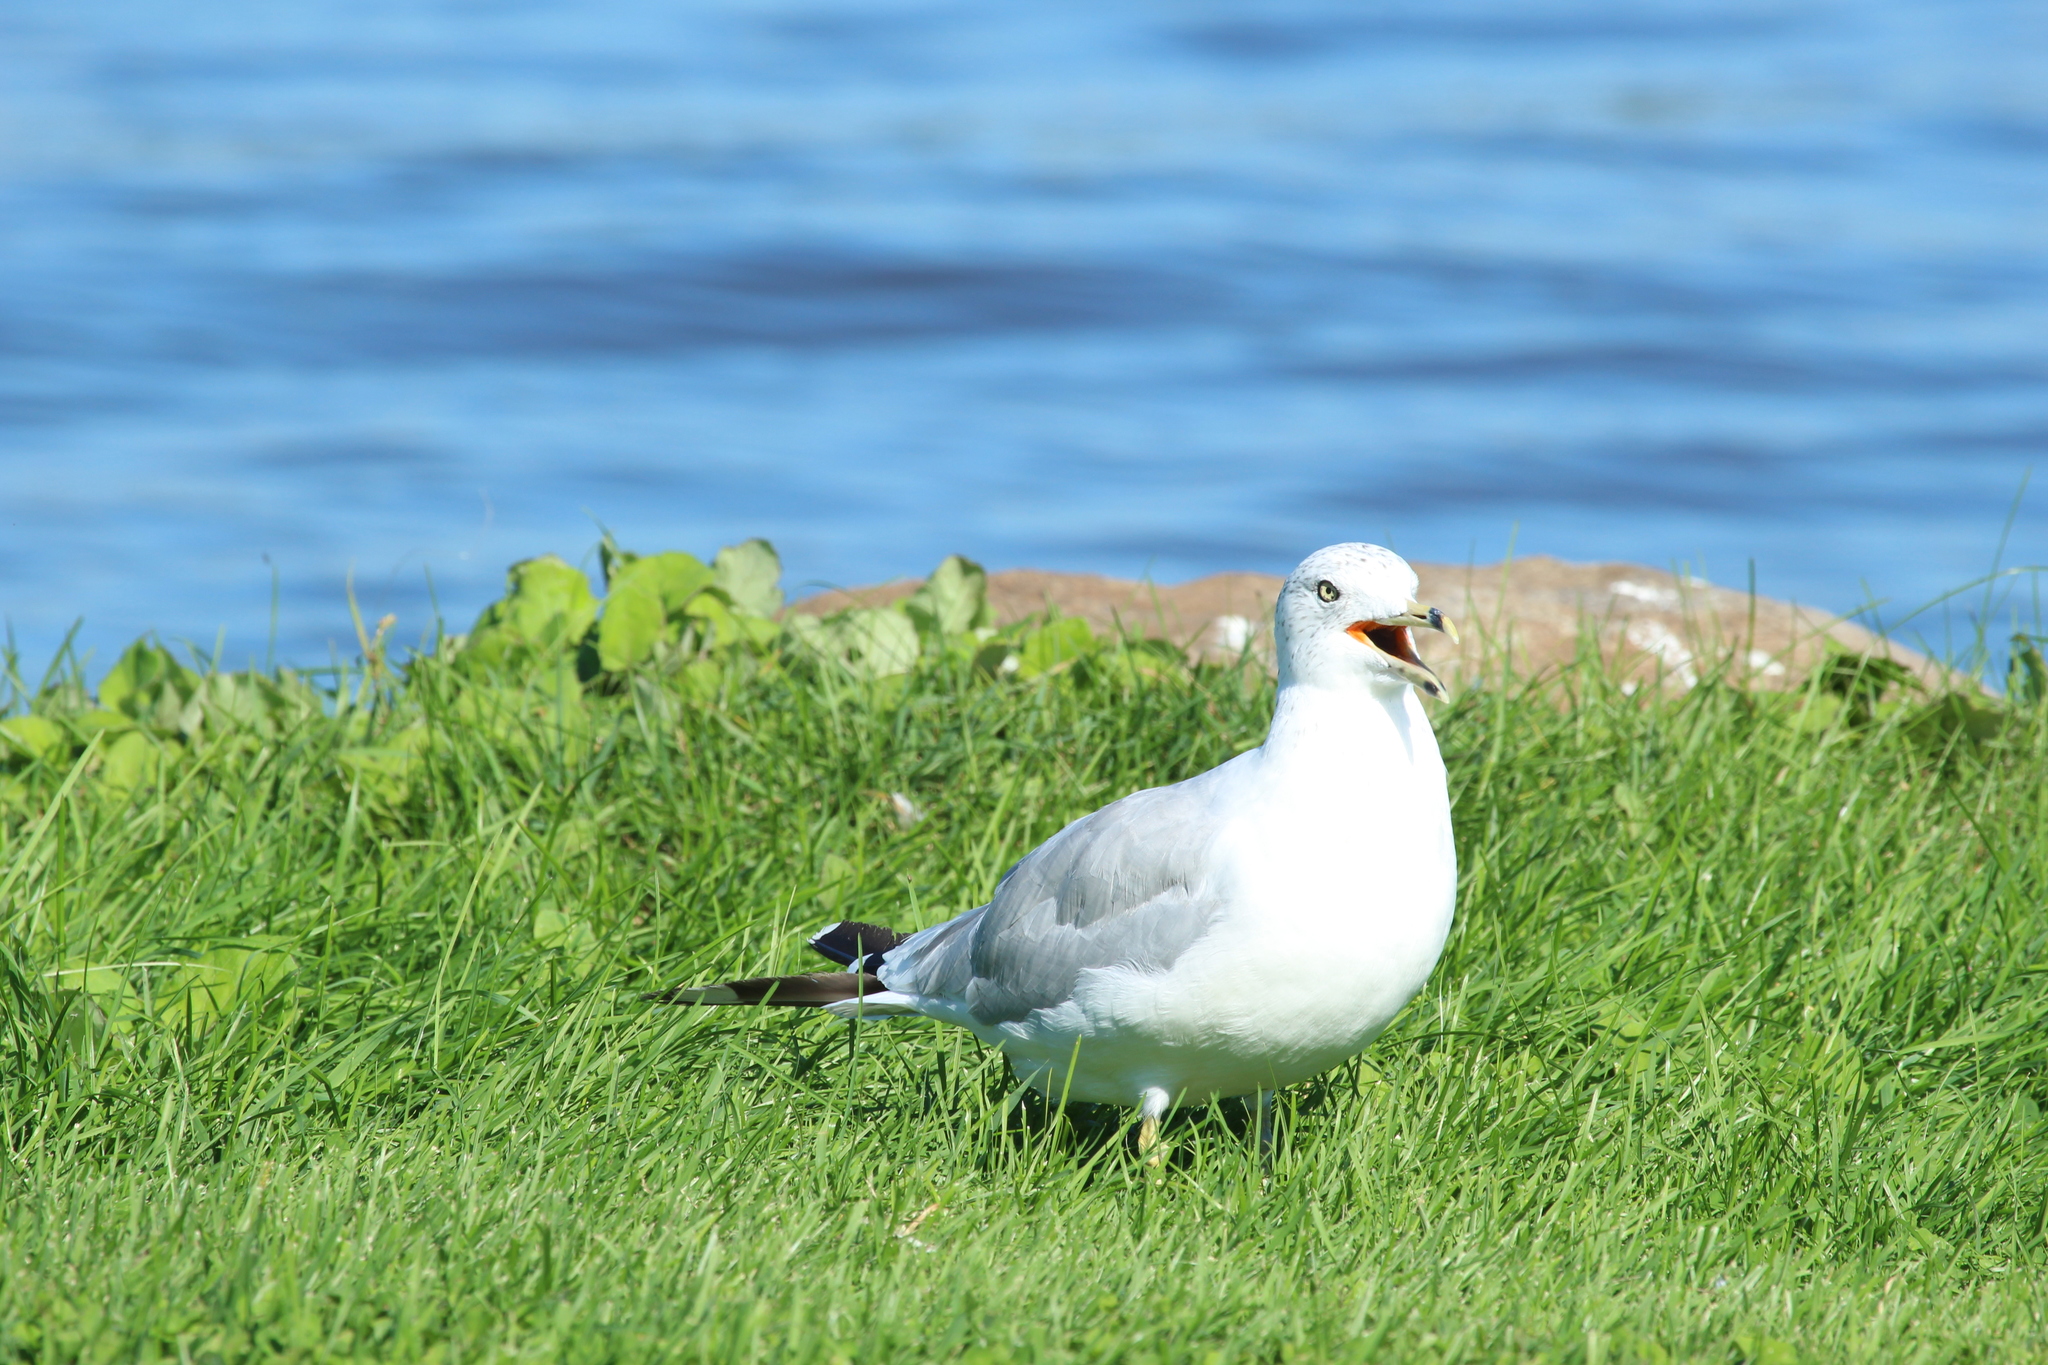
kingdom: Animalia
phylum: Chordata
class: Aves
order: Charadriiformes
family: Laridae
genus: Larus
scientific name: Larus delawarensis
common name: Ring-billed gull
